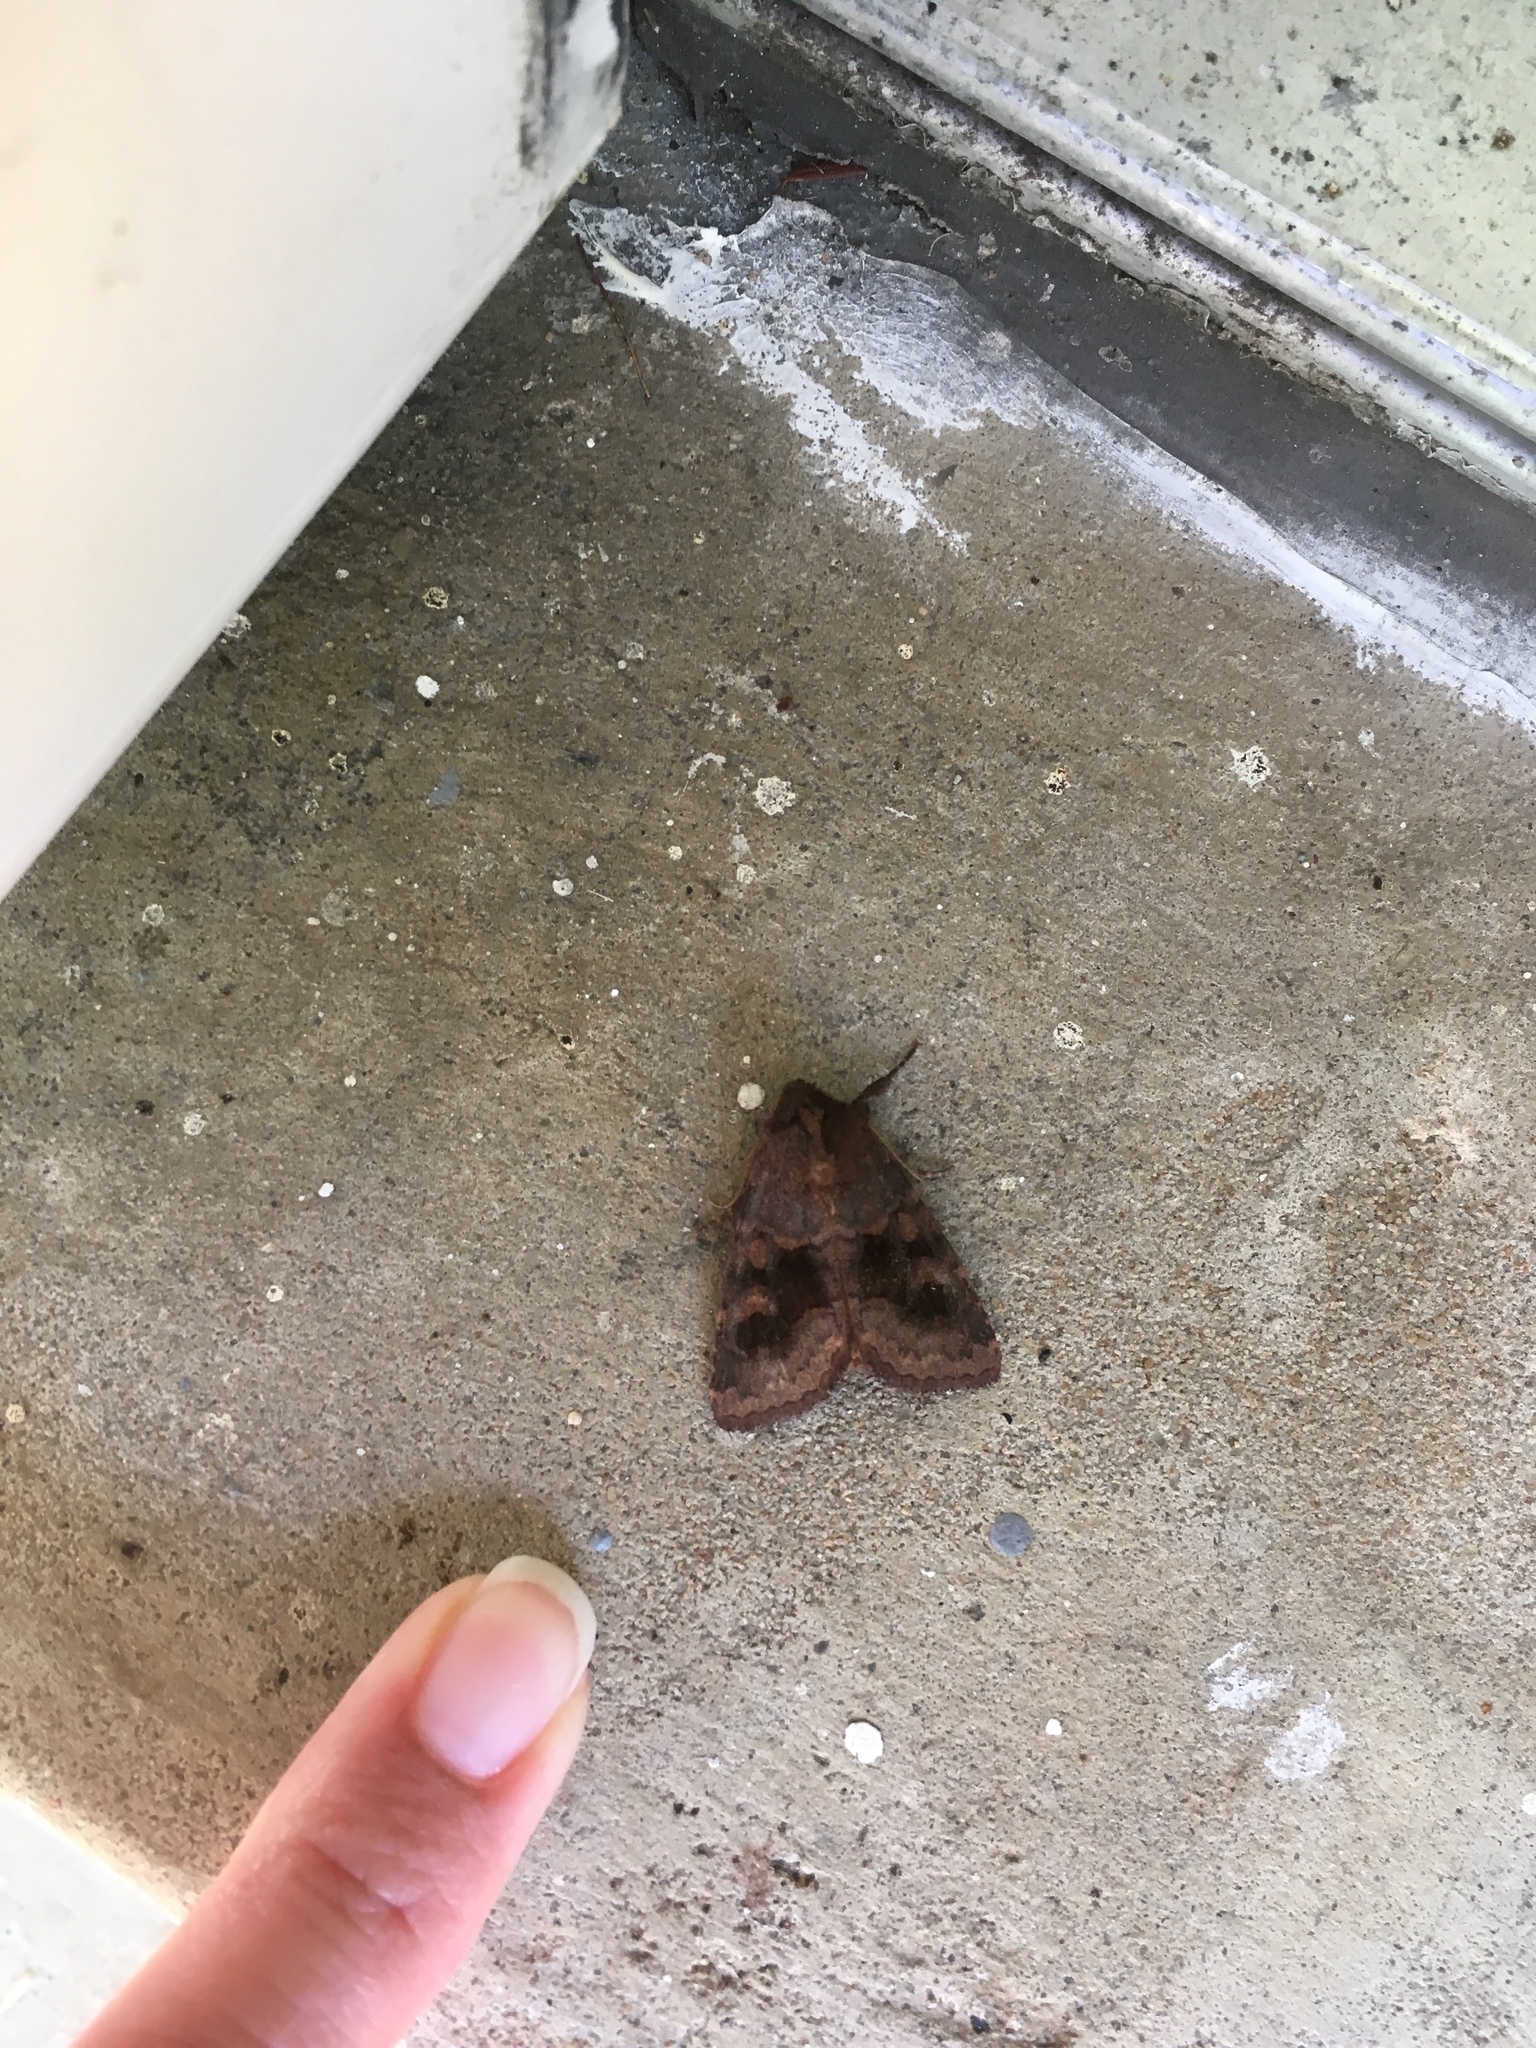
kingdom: Animalia
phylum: Arthropoda
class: Insecta
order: Lepidoptera
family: Noctuidae
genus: Nephelodes
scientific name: Nephelodes minians
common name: Bronzed cutworm
